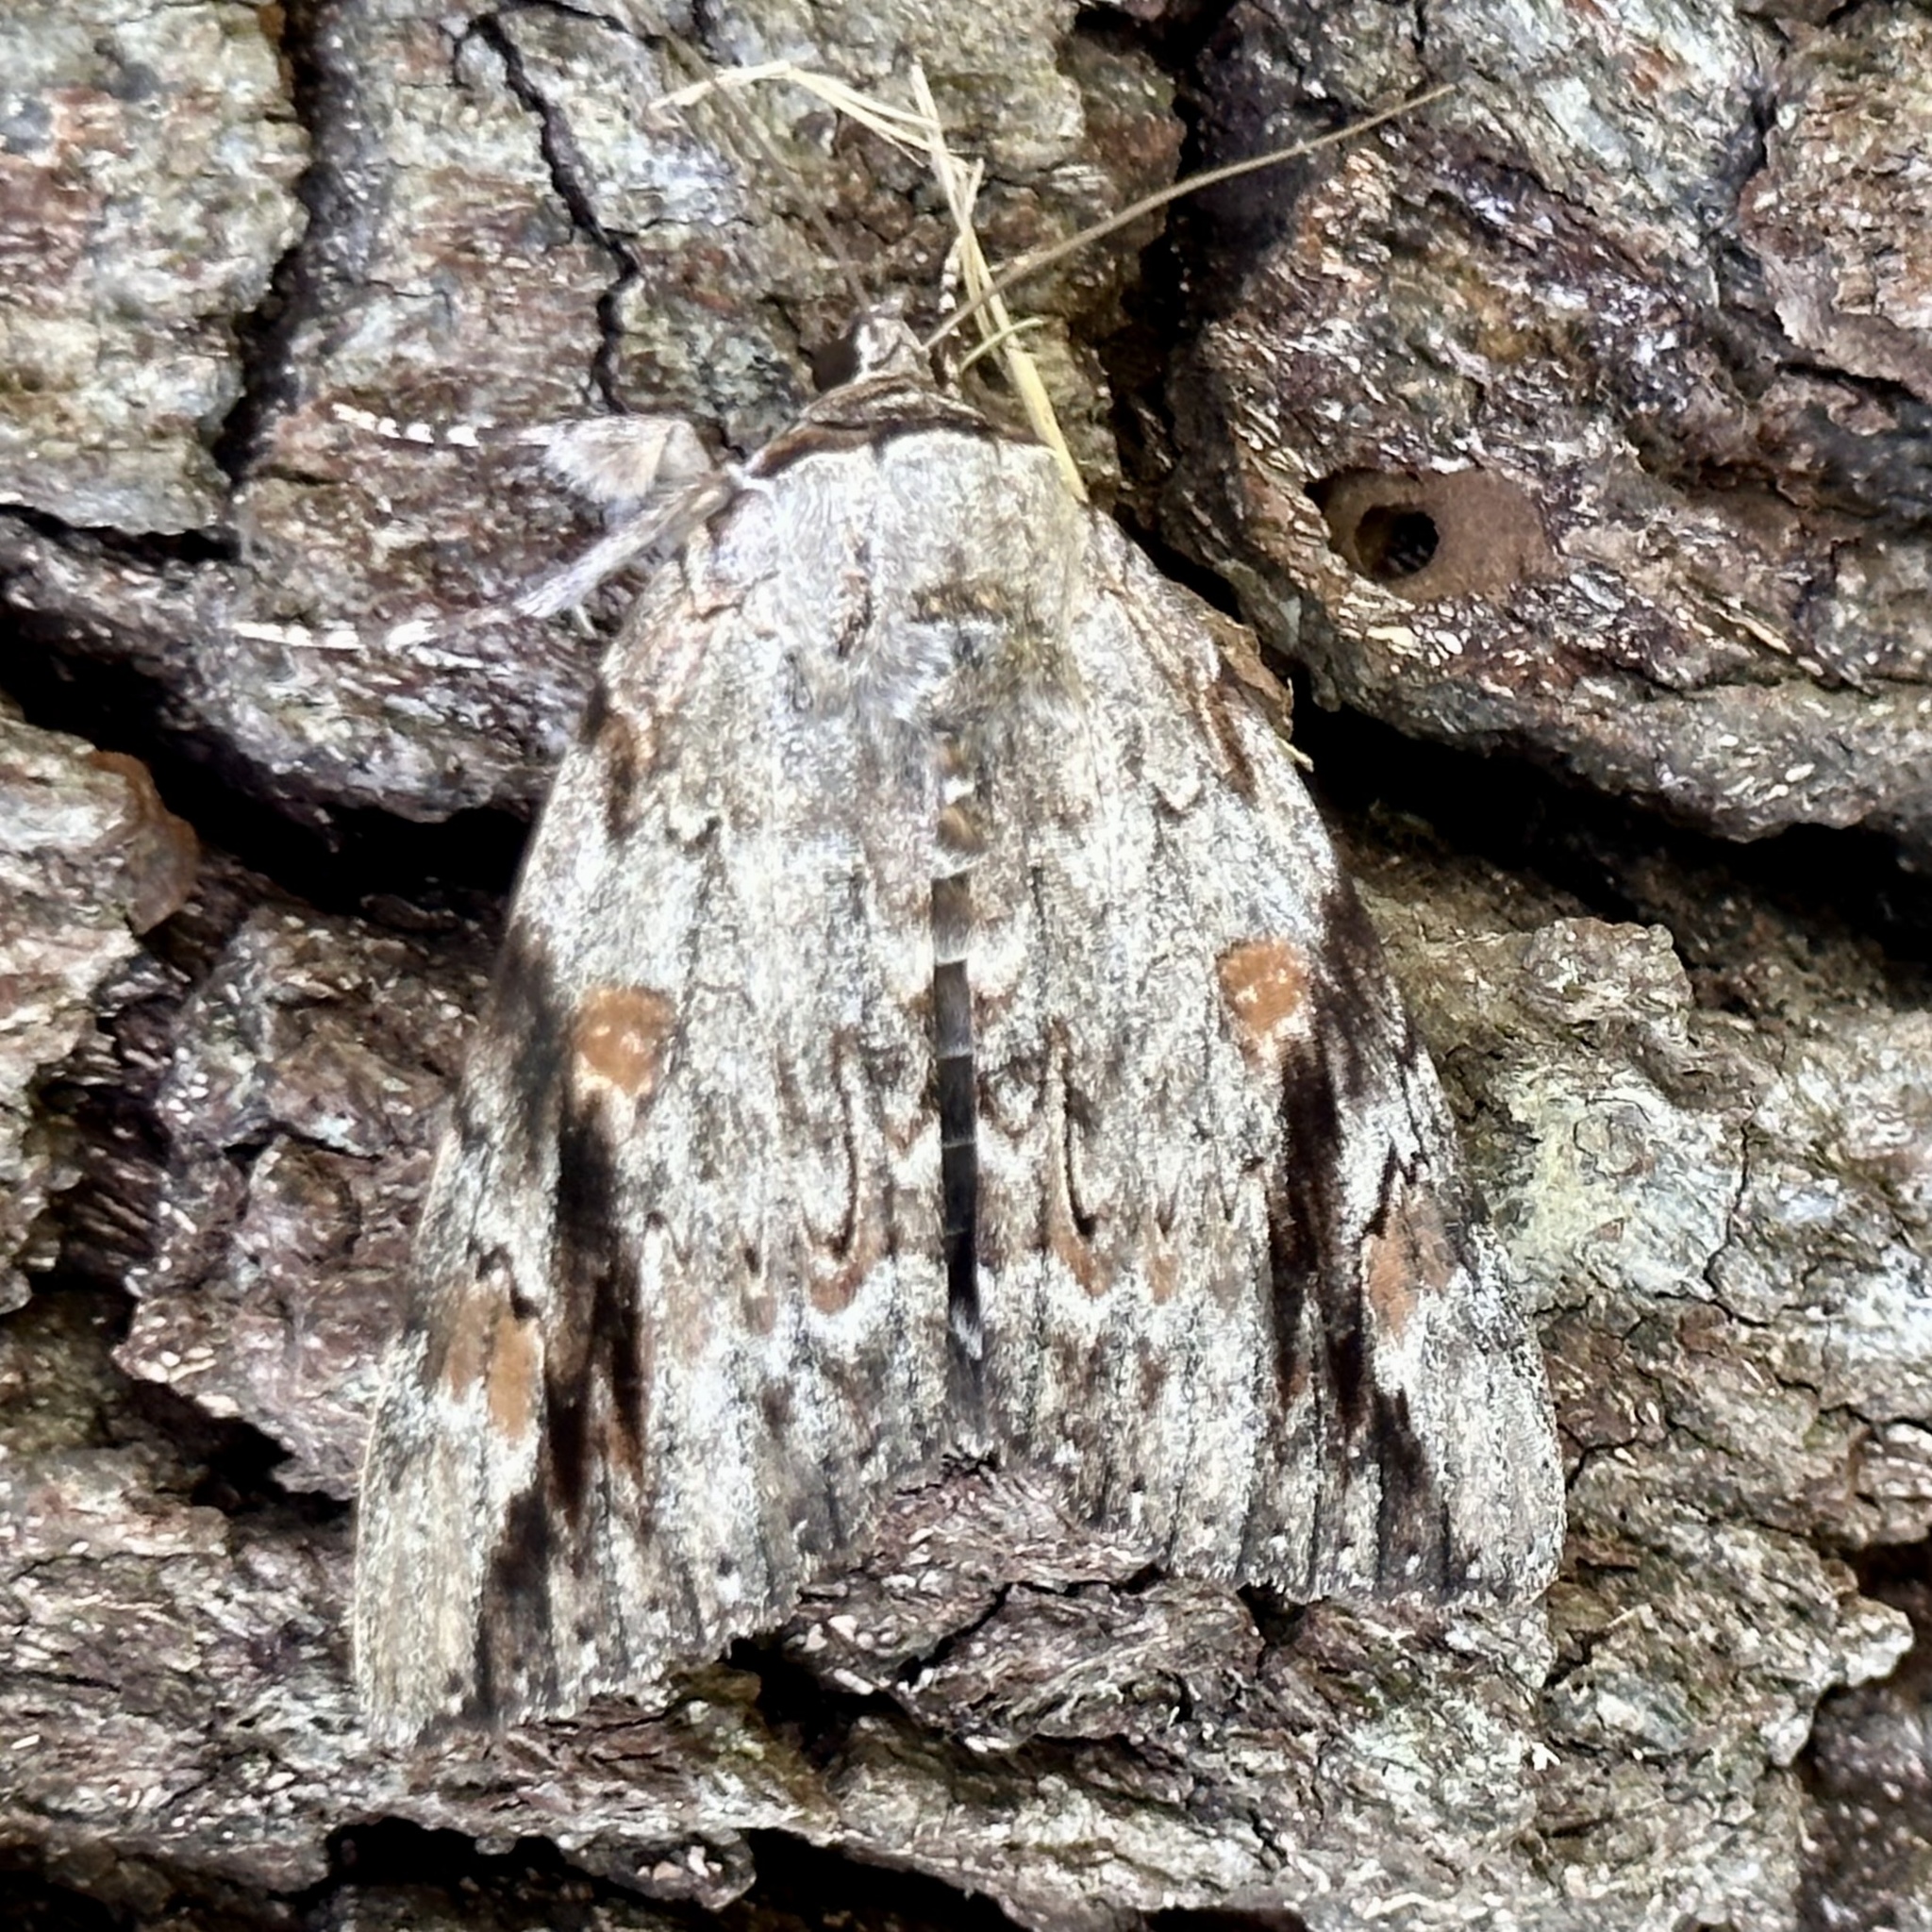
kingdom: Animalia
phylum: Arthropoda
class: Insecta
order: Lepidoptera
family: Erebidae
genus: Catocala
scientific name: Catocala maestosa
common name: Sad underwing
